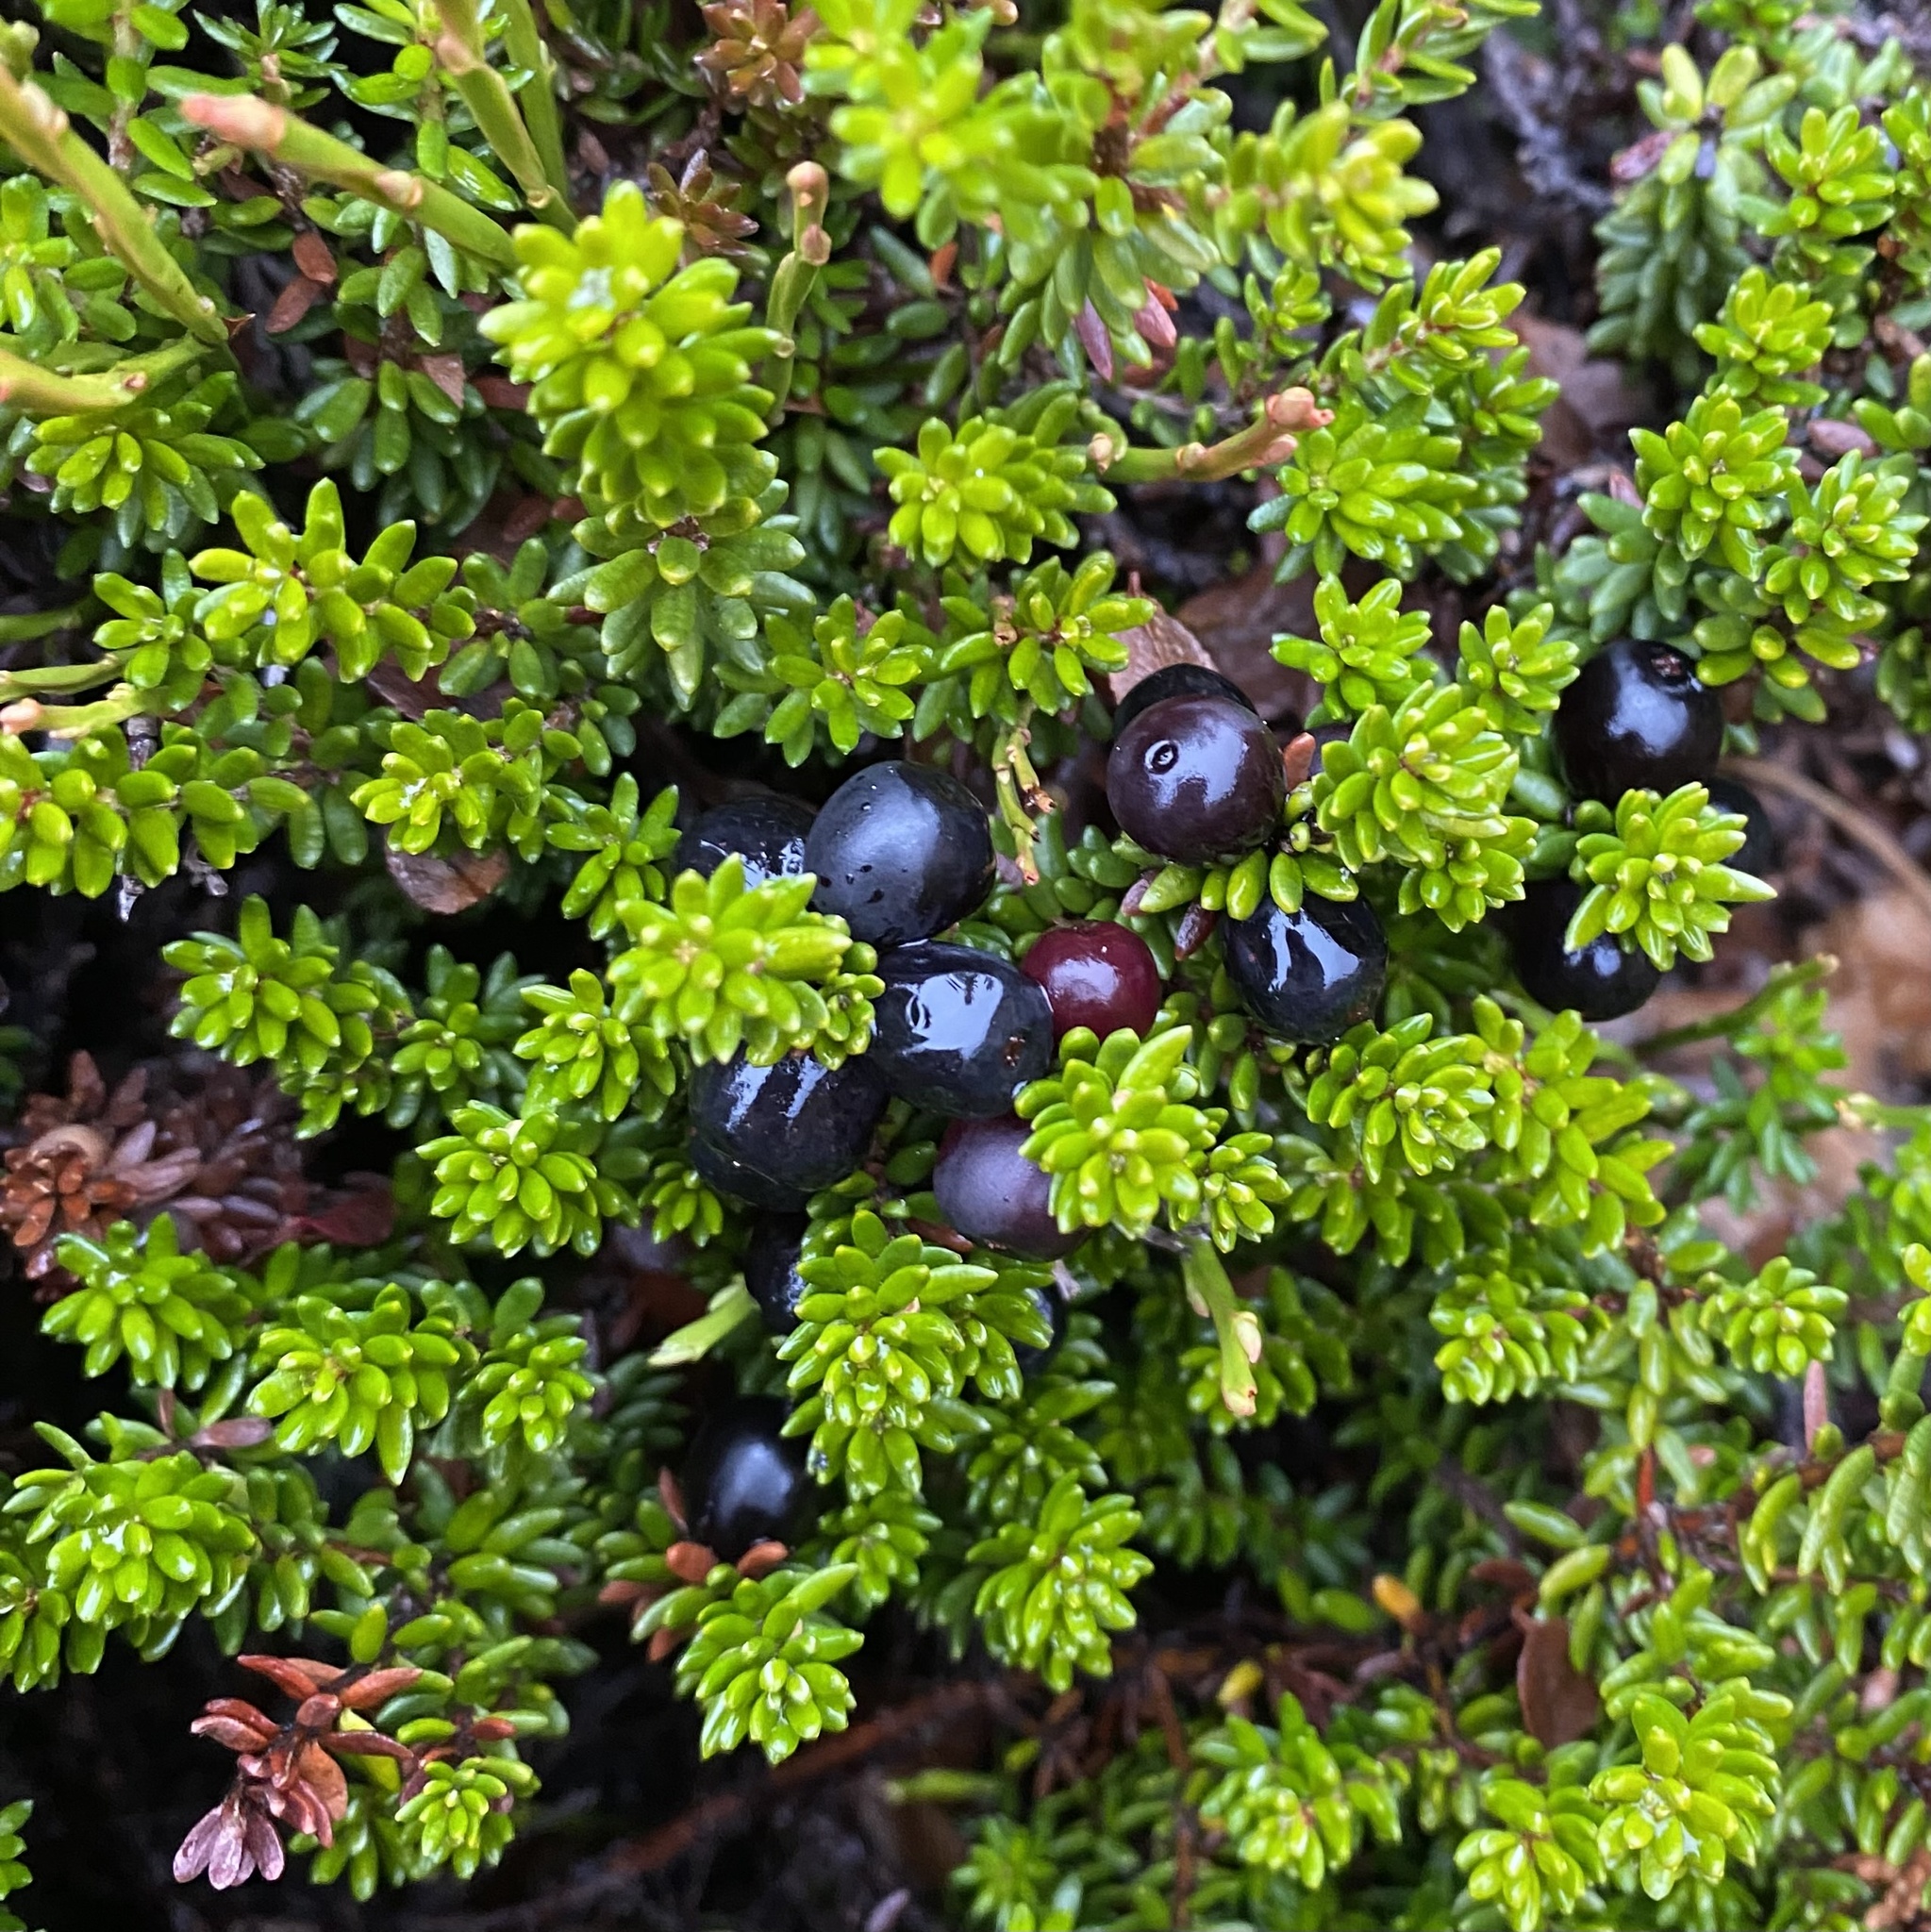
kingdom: Plantae
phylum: Tracheophyta
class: Magnoliopsida
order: Ericales
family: Ericaceae
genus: Empetrum
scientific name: Empetrum nigrum
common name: Black crowberry
